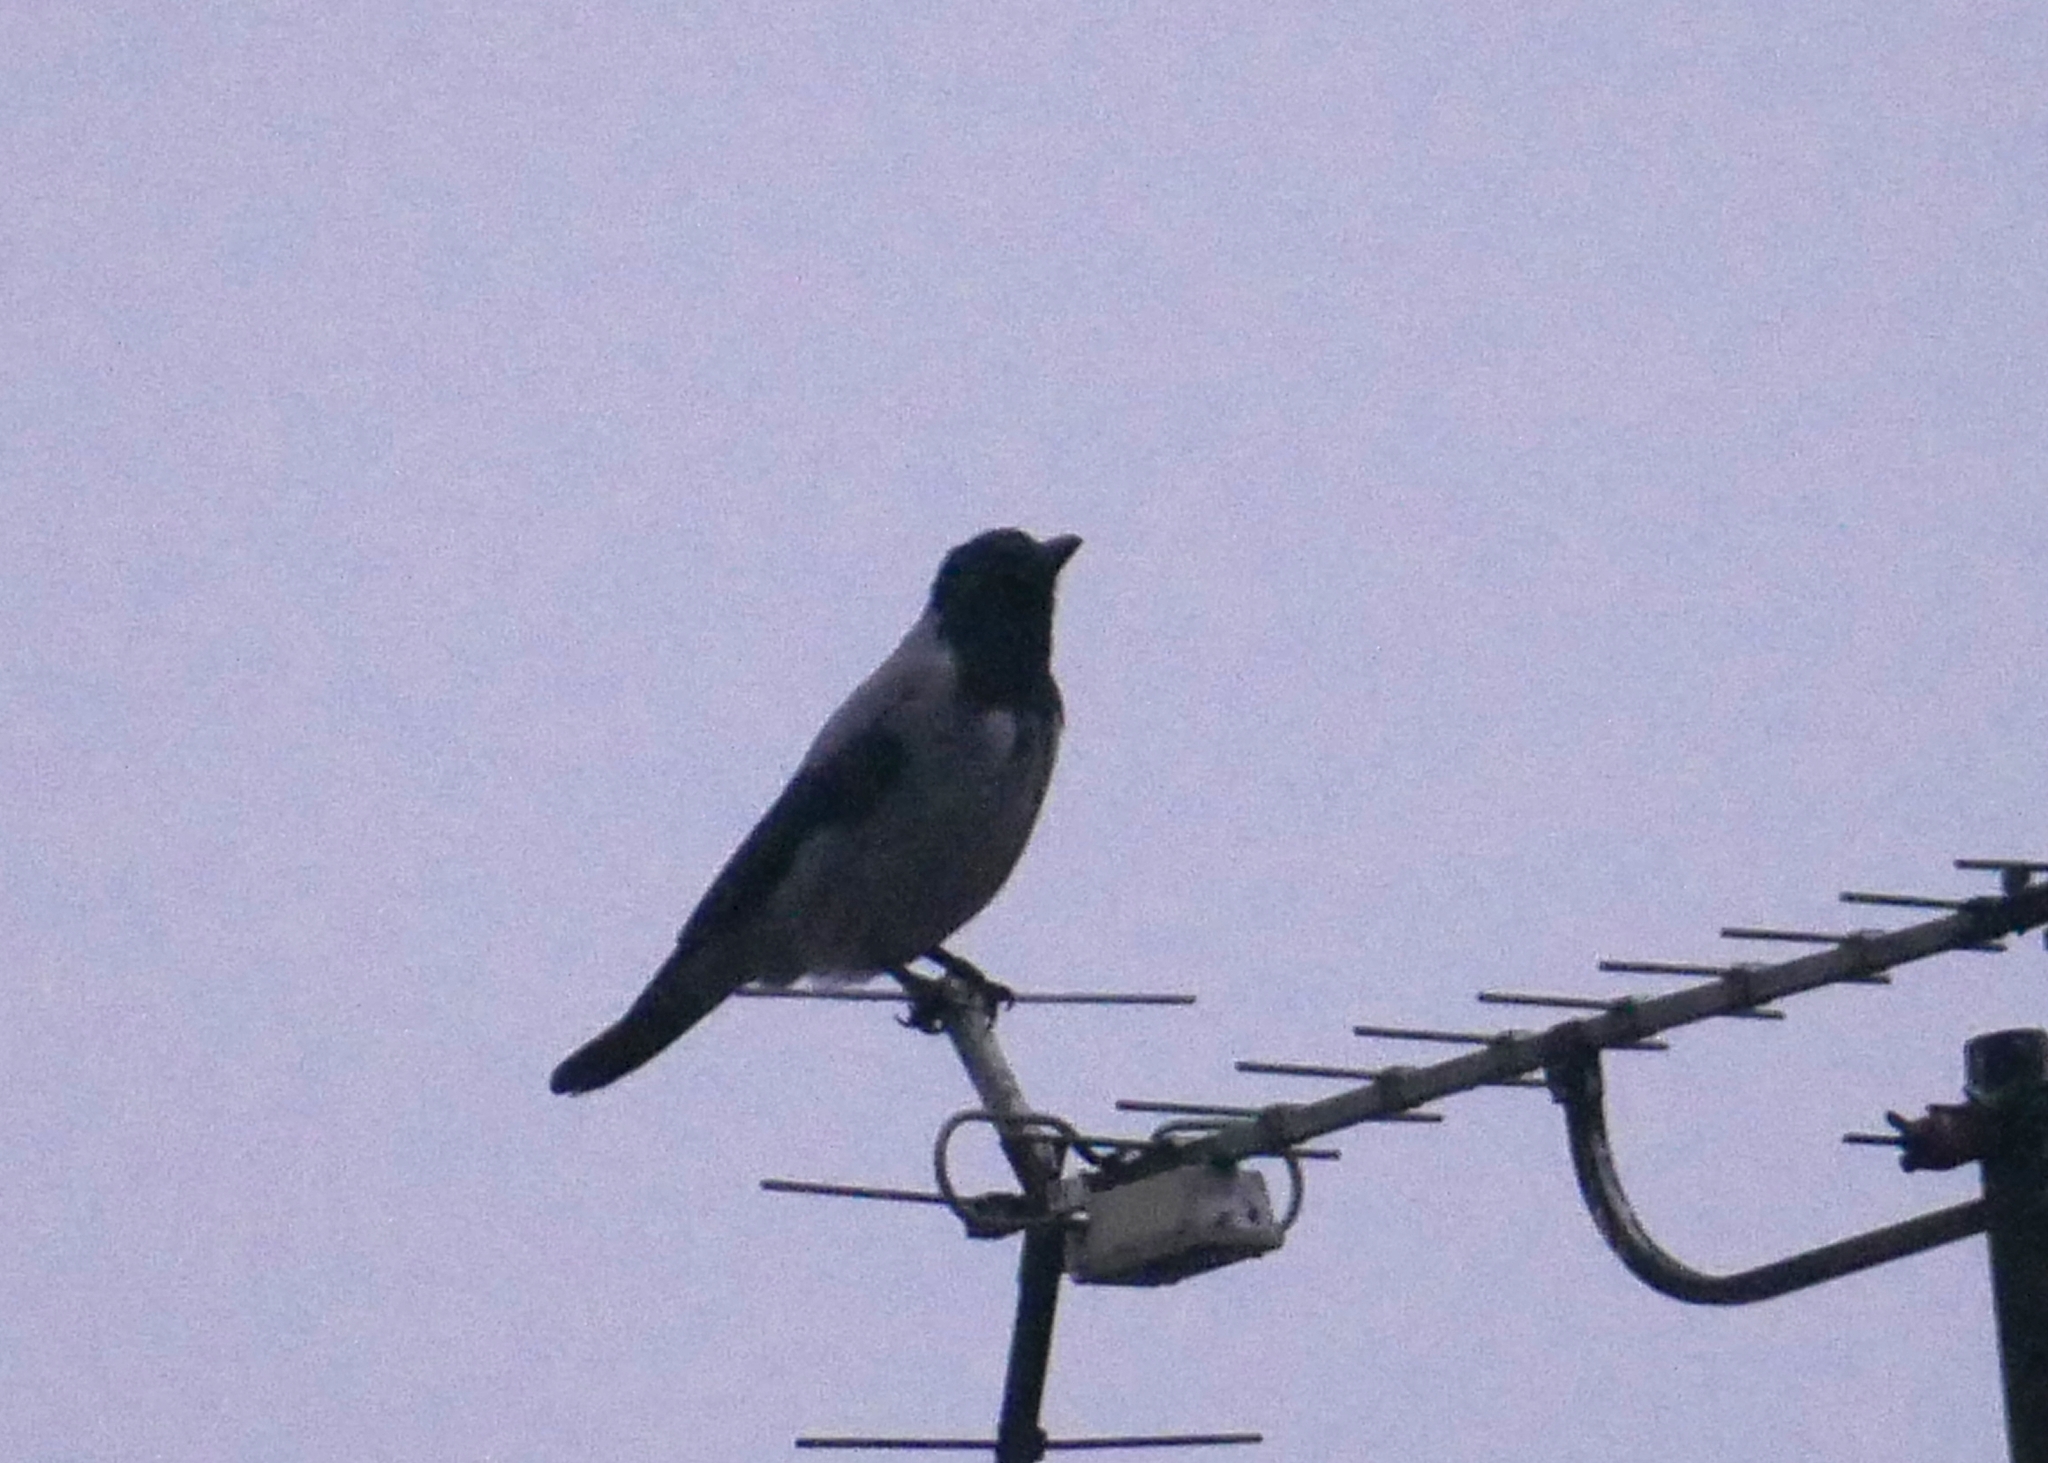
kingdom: Animalia
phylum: Chordata
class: Aves
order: Passeriformes
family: Corvidae
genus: Corvus
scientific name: Corvus cornix
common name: Hooded crow
